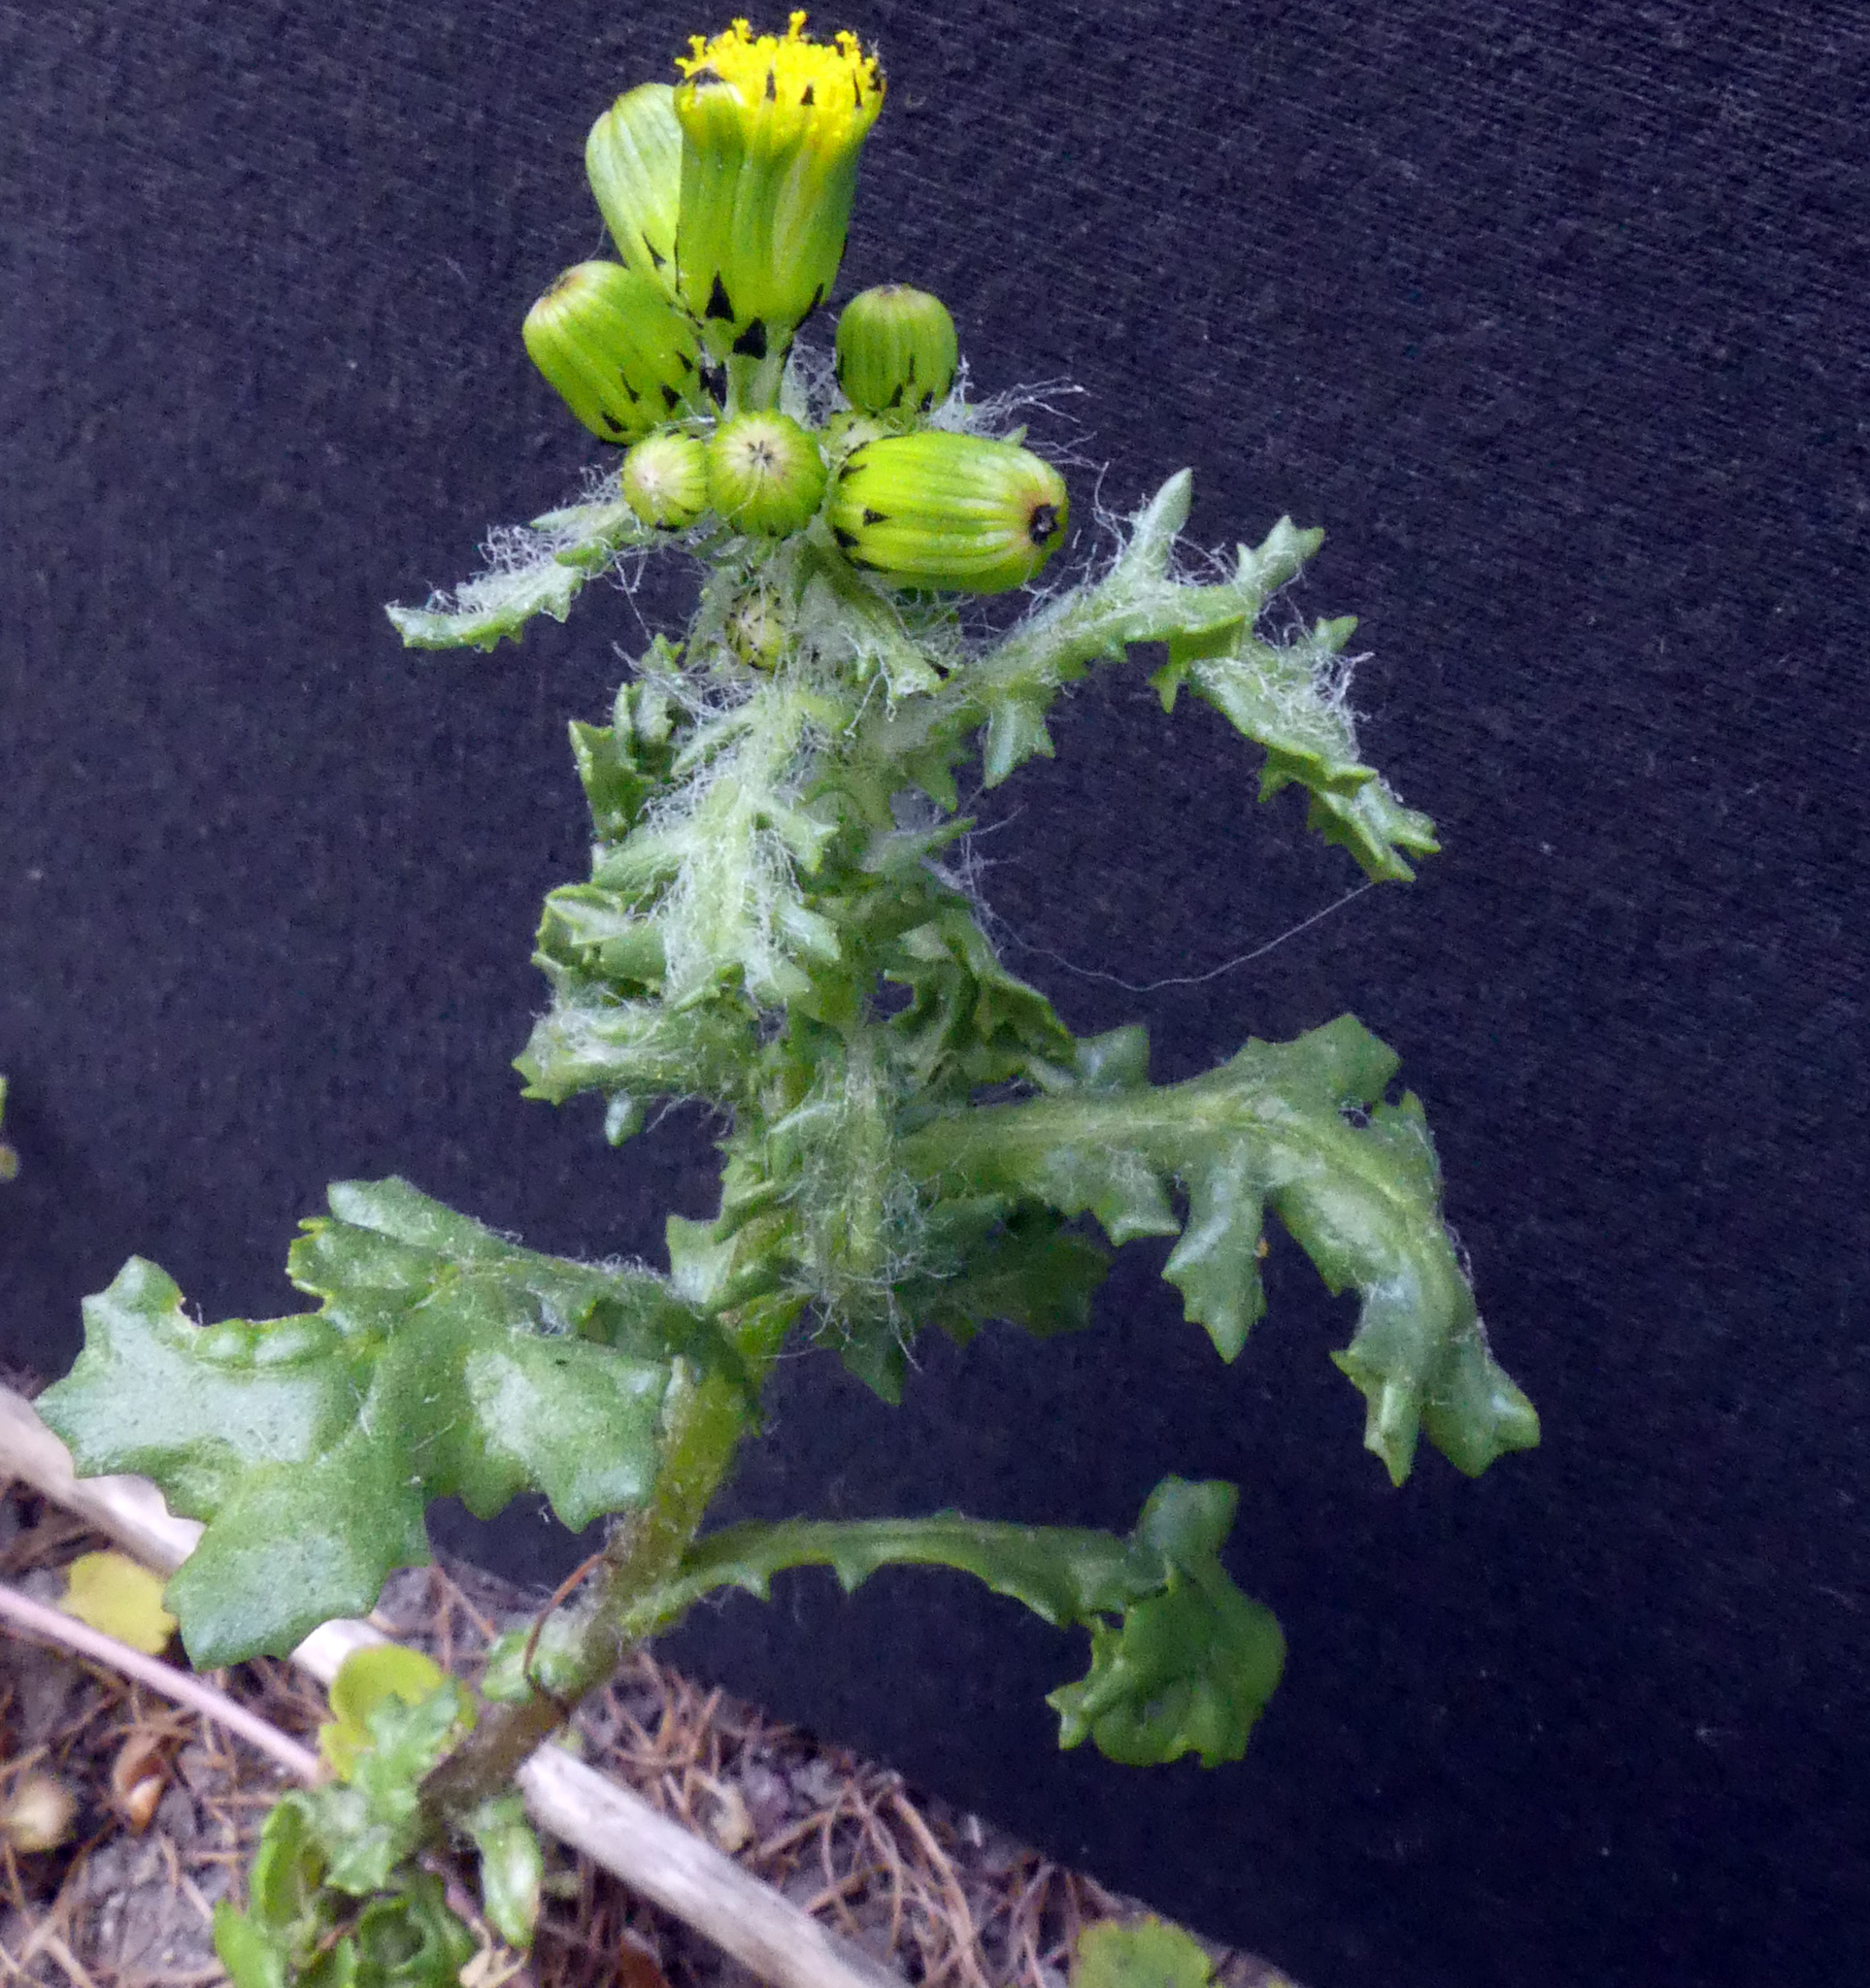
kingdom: Plantae
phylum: Tracheophyta
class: Magnoliopsida
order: Asterales
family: Asteraceae
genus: Senecio
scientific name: Senecio vulgaris
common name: Old-man-in-the-spring
